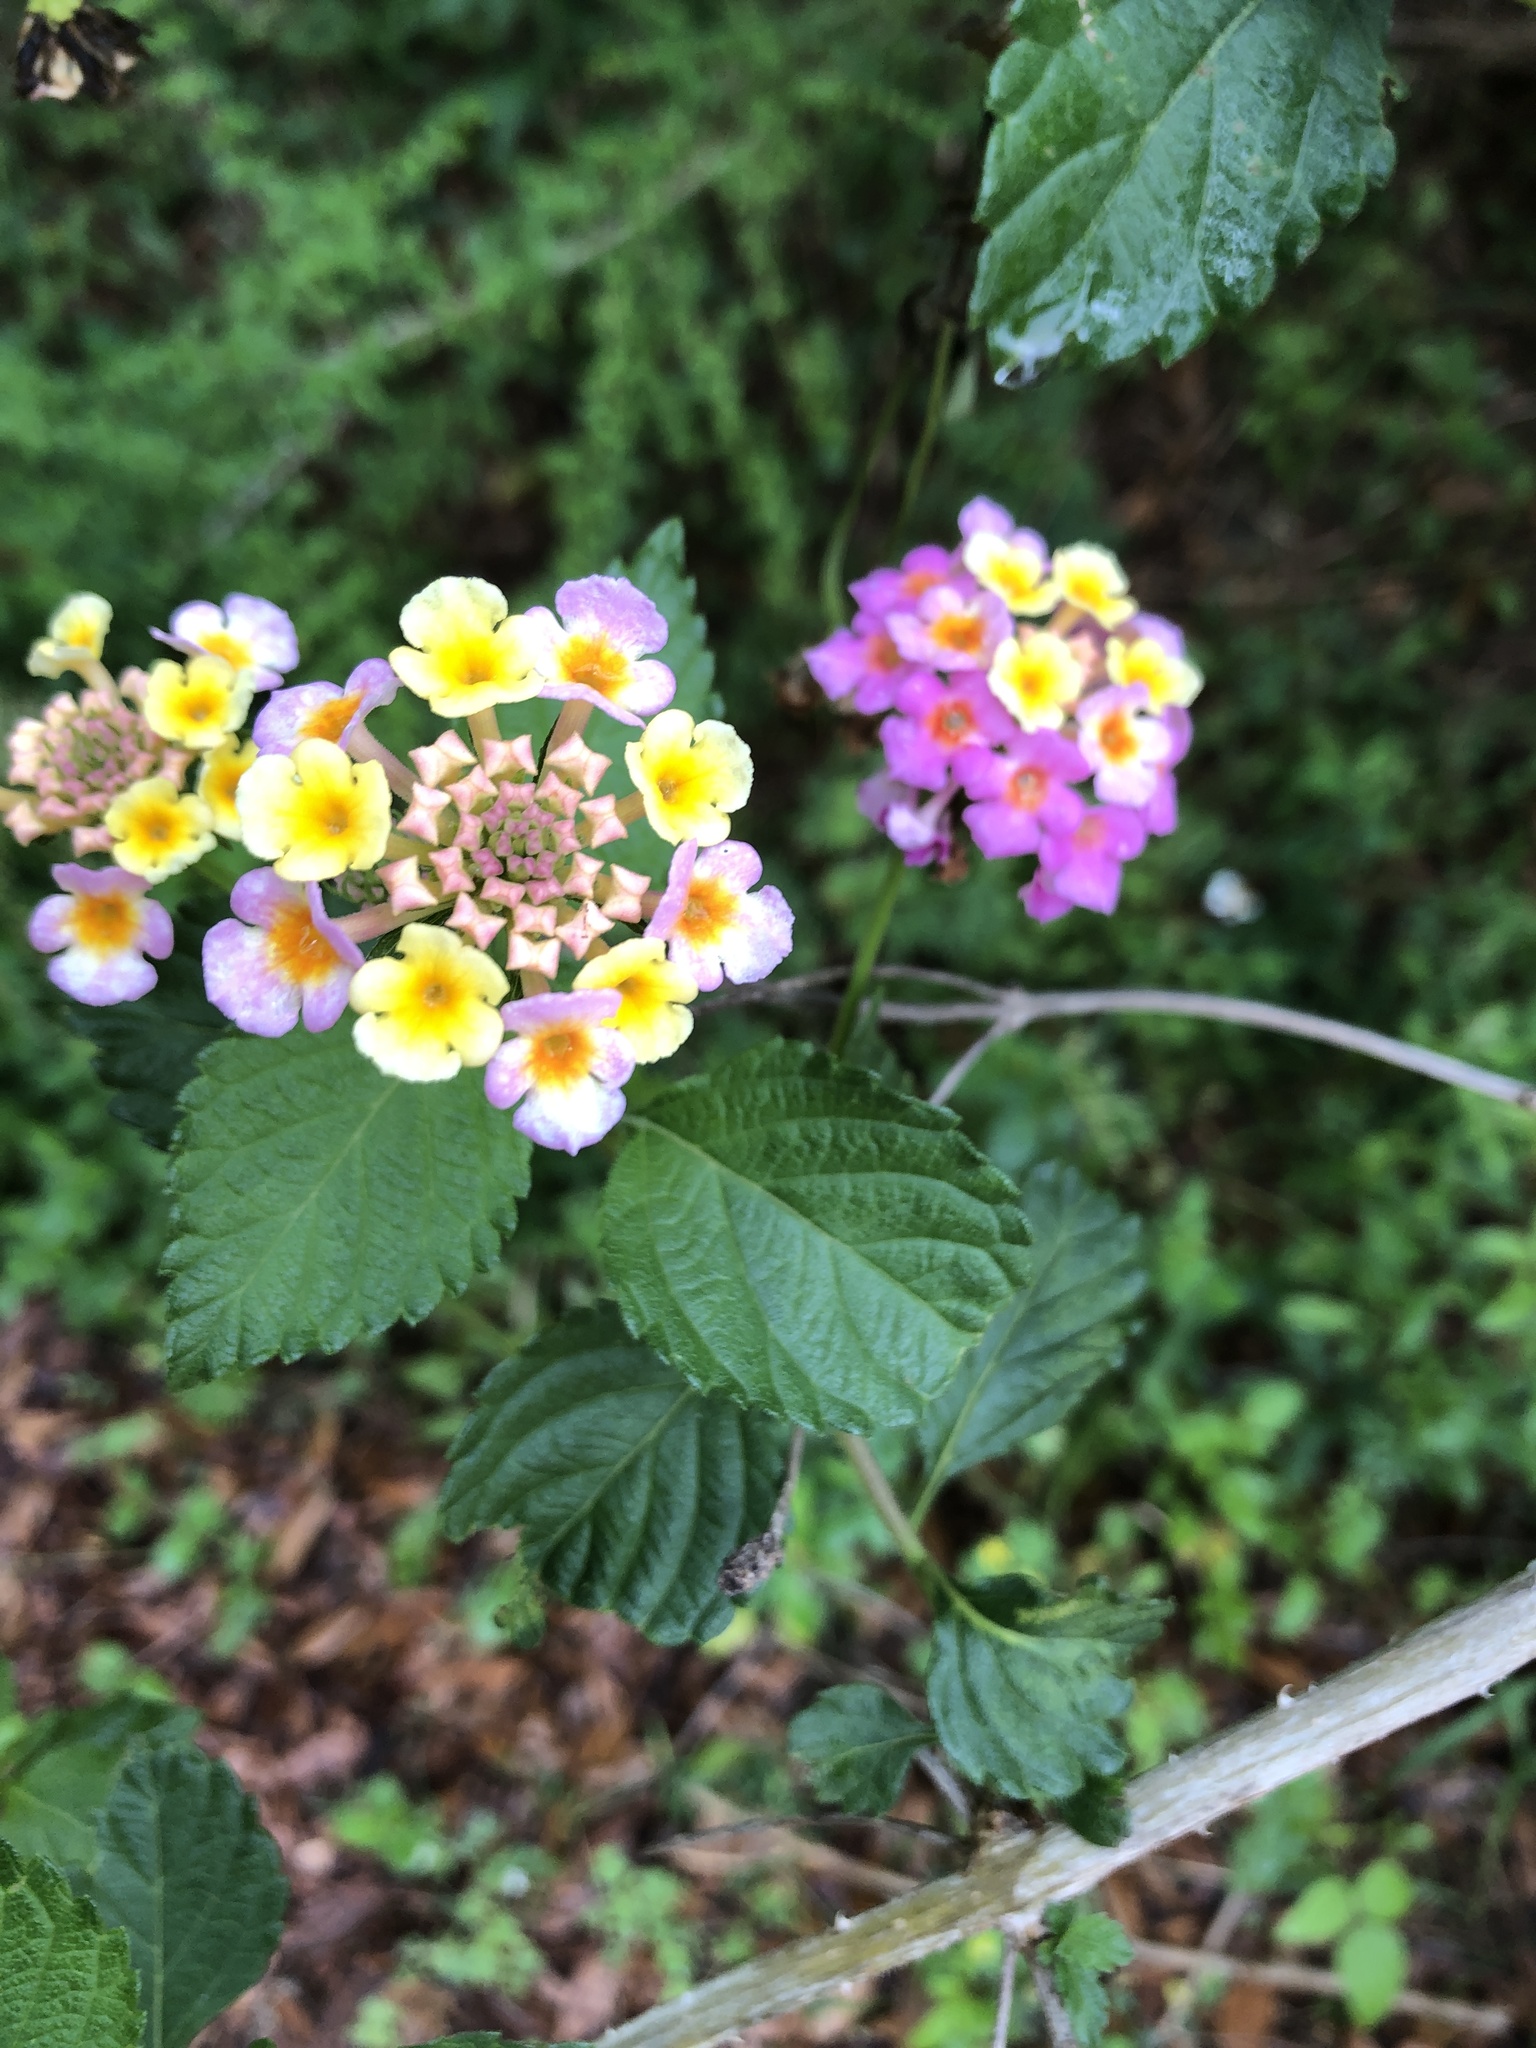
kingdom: Plantae
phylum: Tracheophyta
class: Magnoliopsida
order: Lamiales
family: Verbenaceae
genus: Lantana
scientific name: Lantana strigocamara
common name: Lantana
